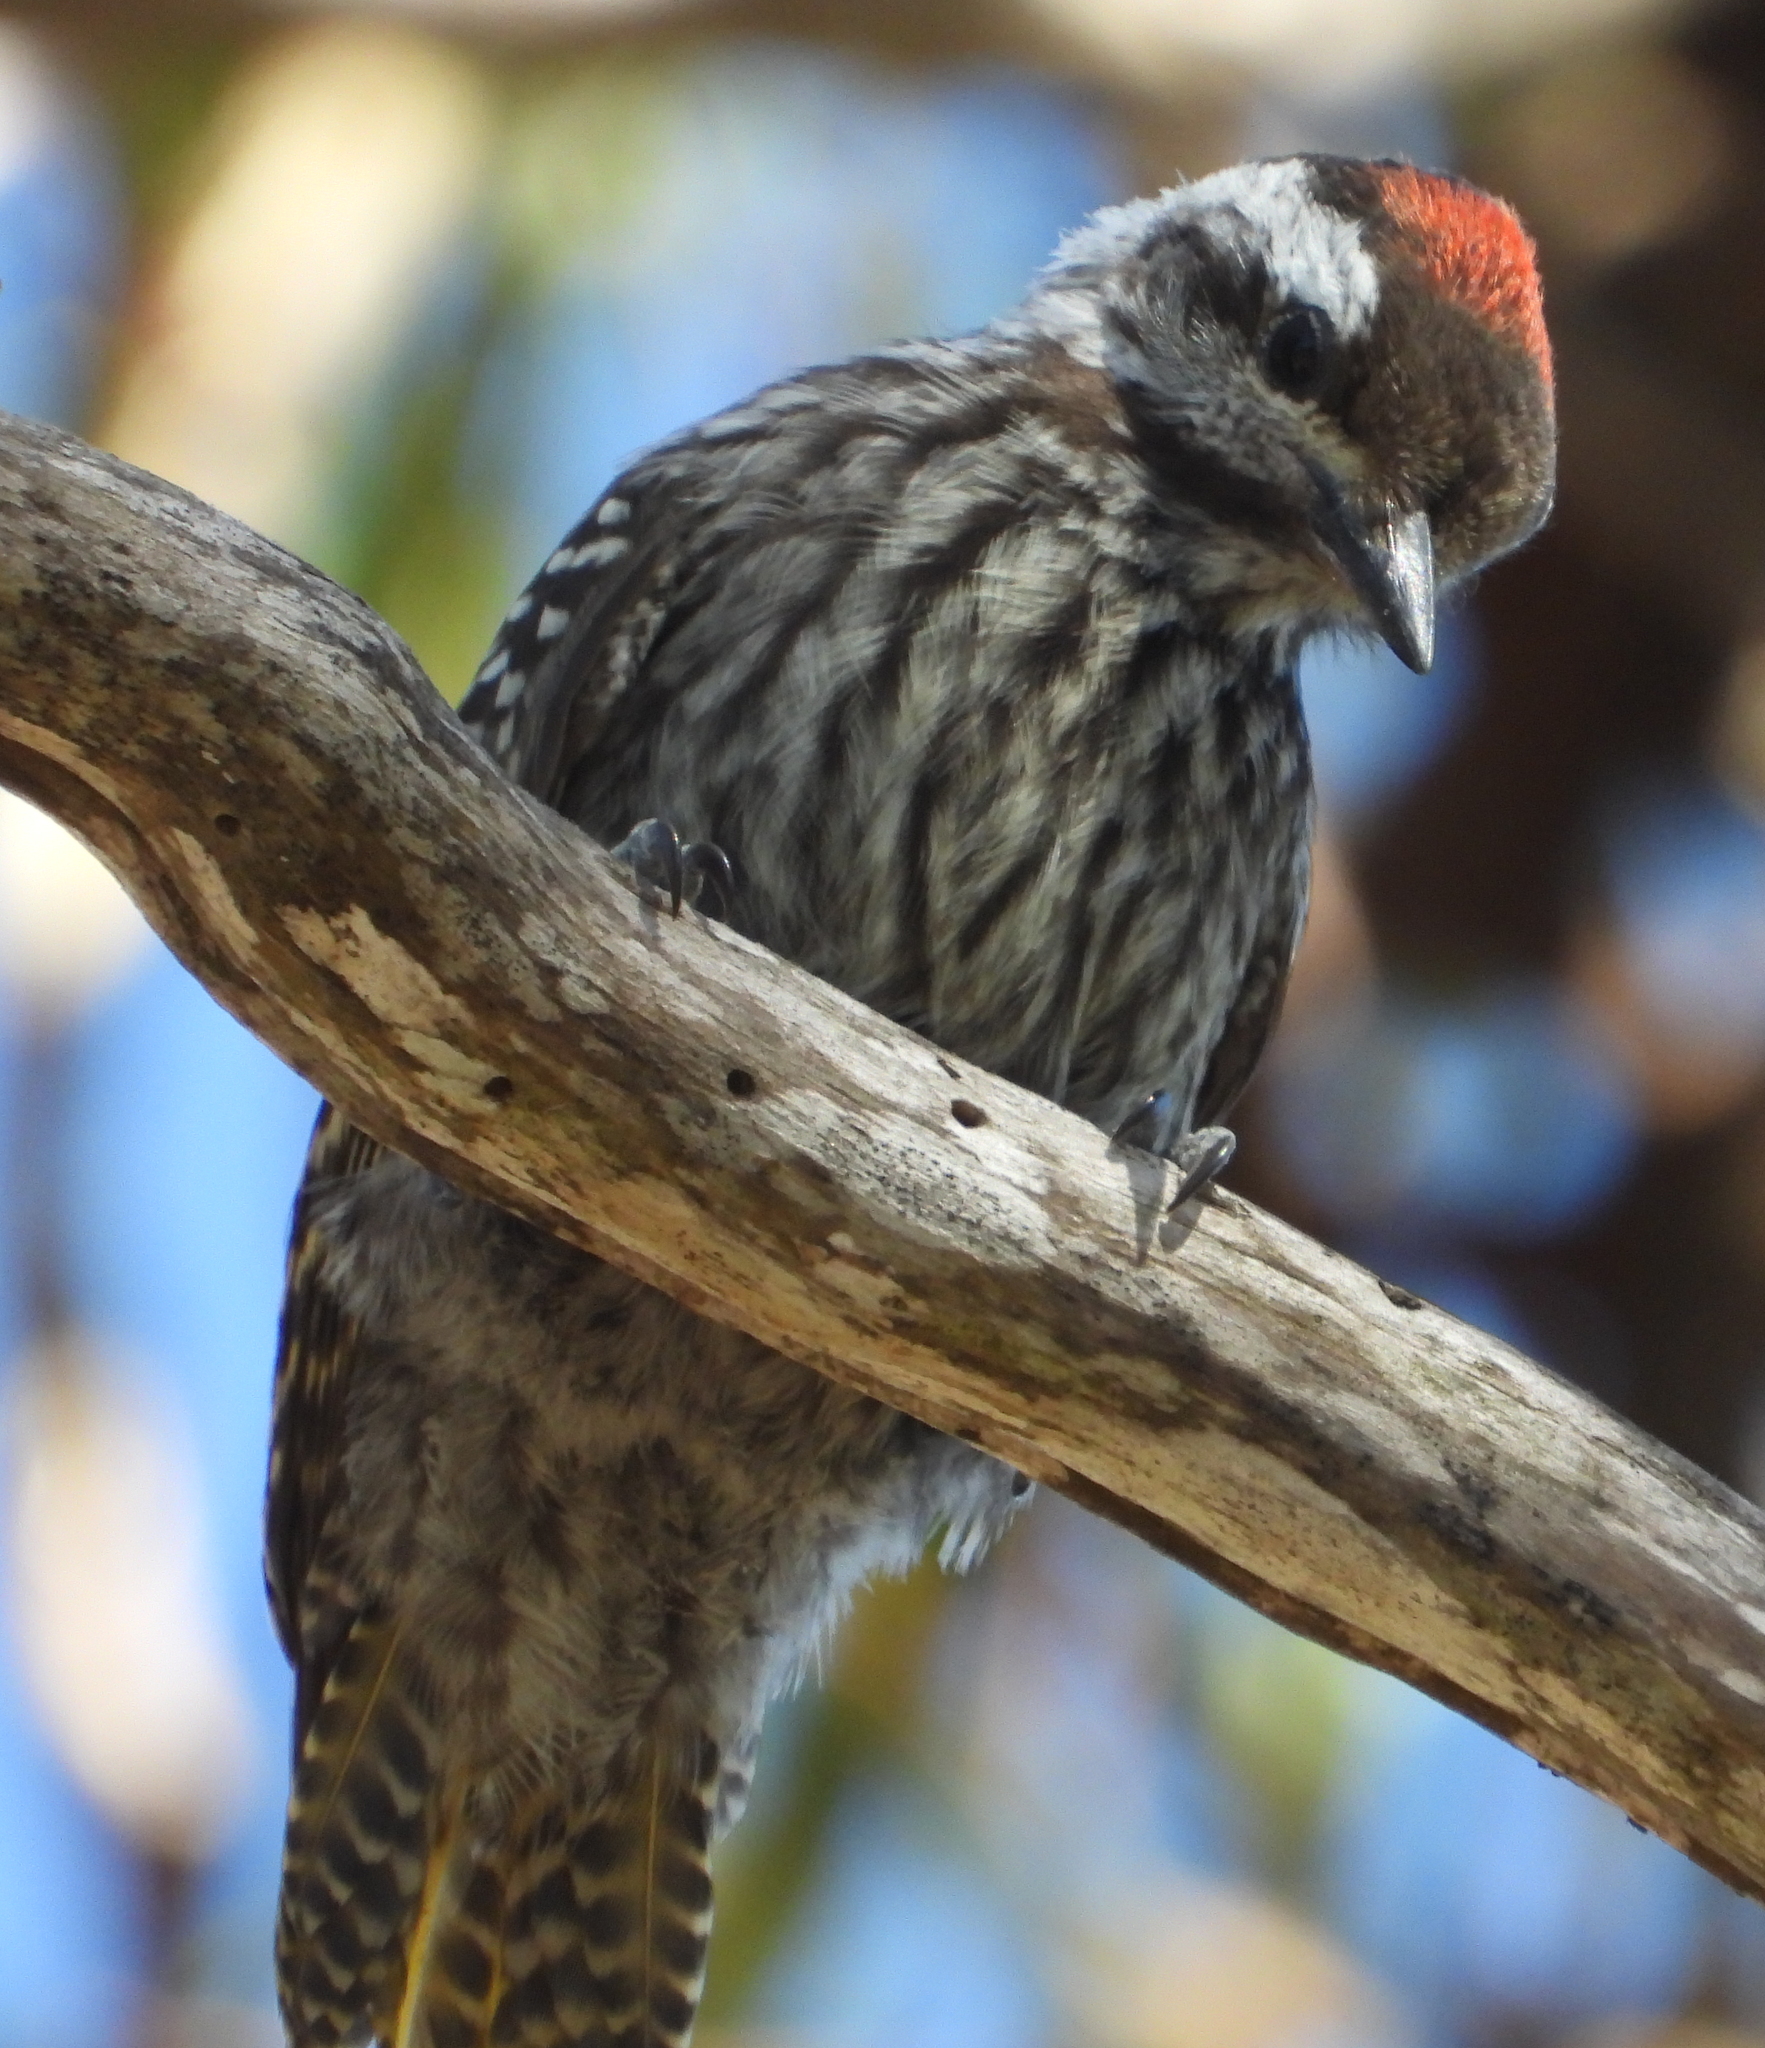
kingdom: Animalia
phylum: Chordata
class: Aves
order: Piciformes
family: Picidae
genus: Dendropicos
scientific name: Dendropicos fuscescens
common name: Cardinal woodpecker
